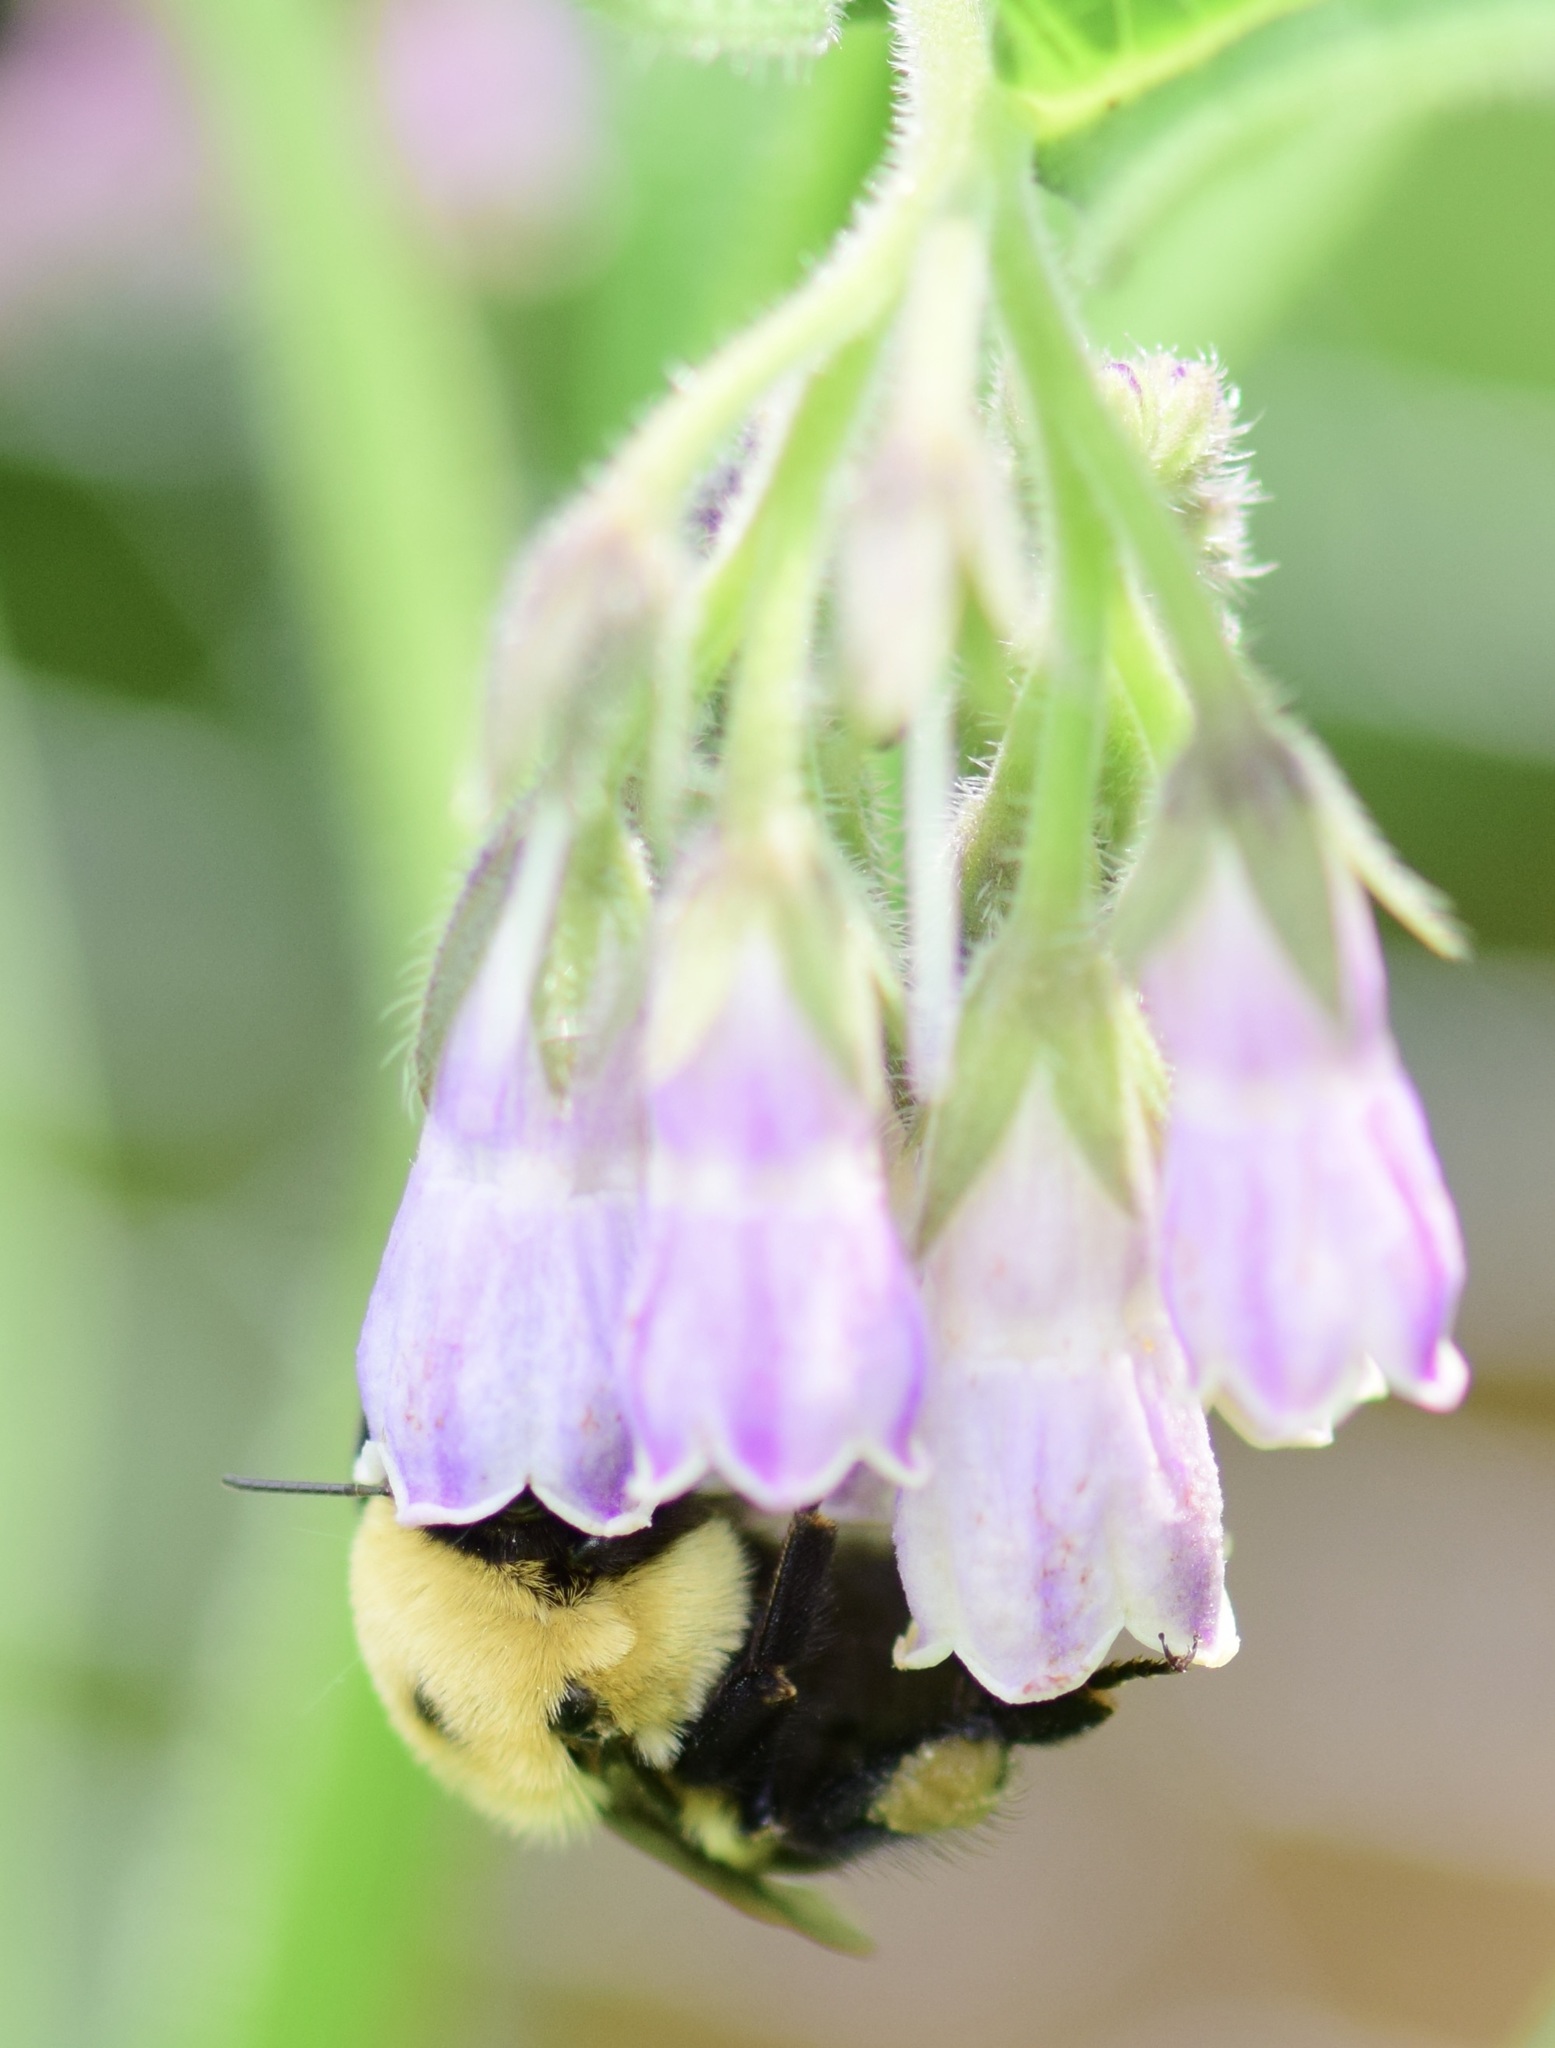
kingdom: Animalia
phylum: Arthropoda
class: Insecta
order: Hymenoptera
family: Apidae
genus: Bombus
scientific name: Bombus griseocollis
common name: Brown-belted bumble bee
